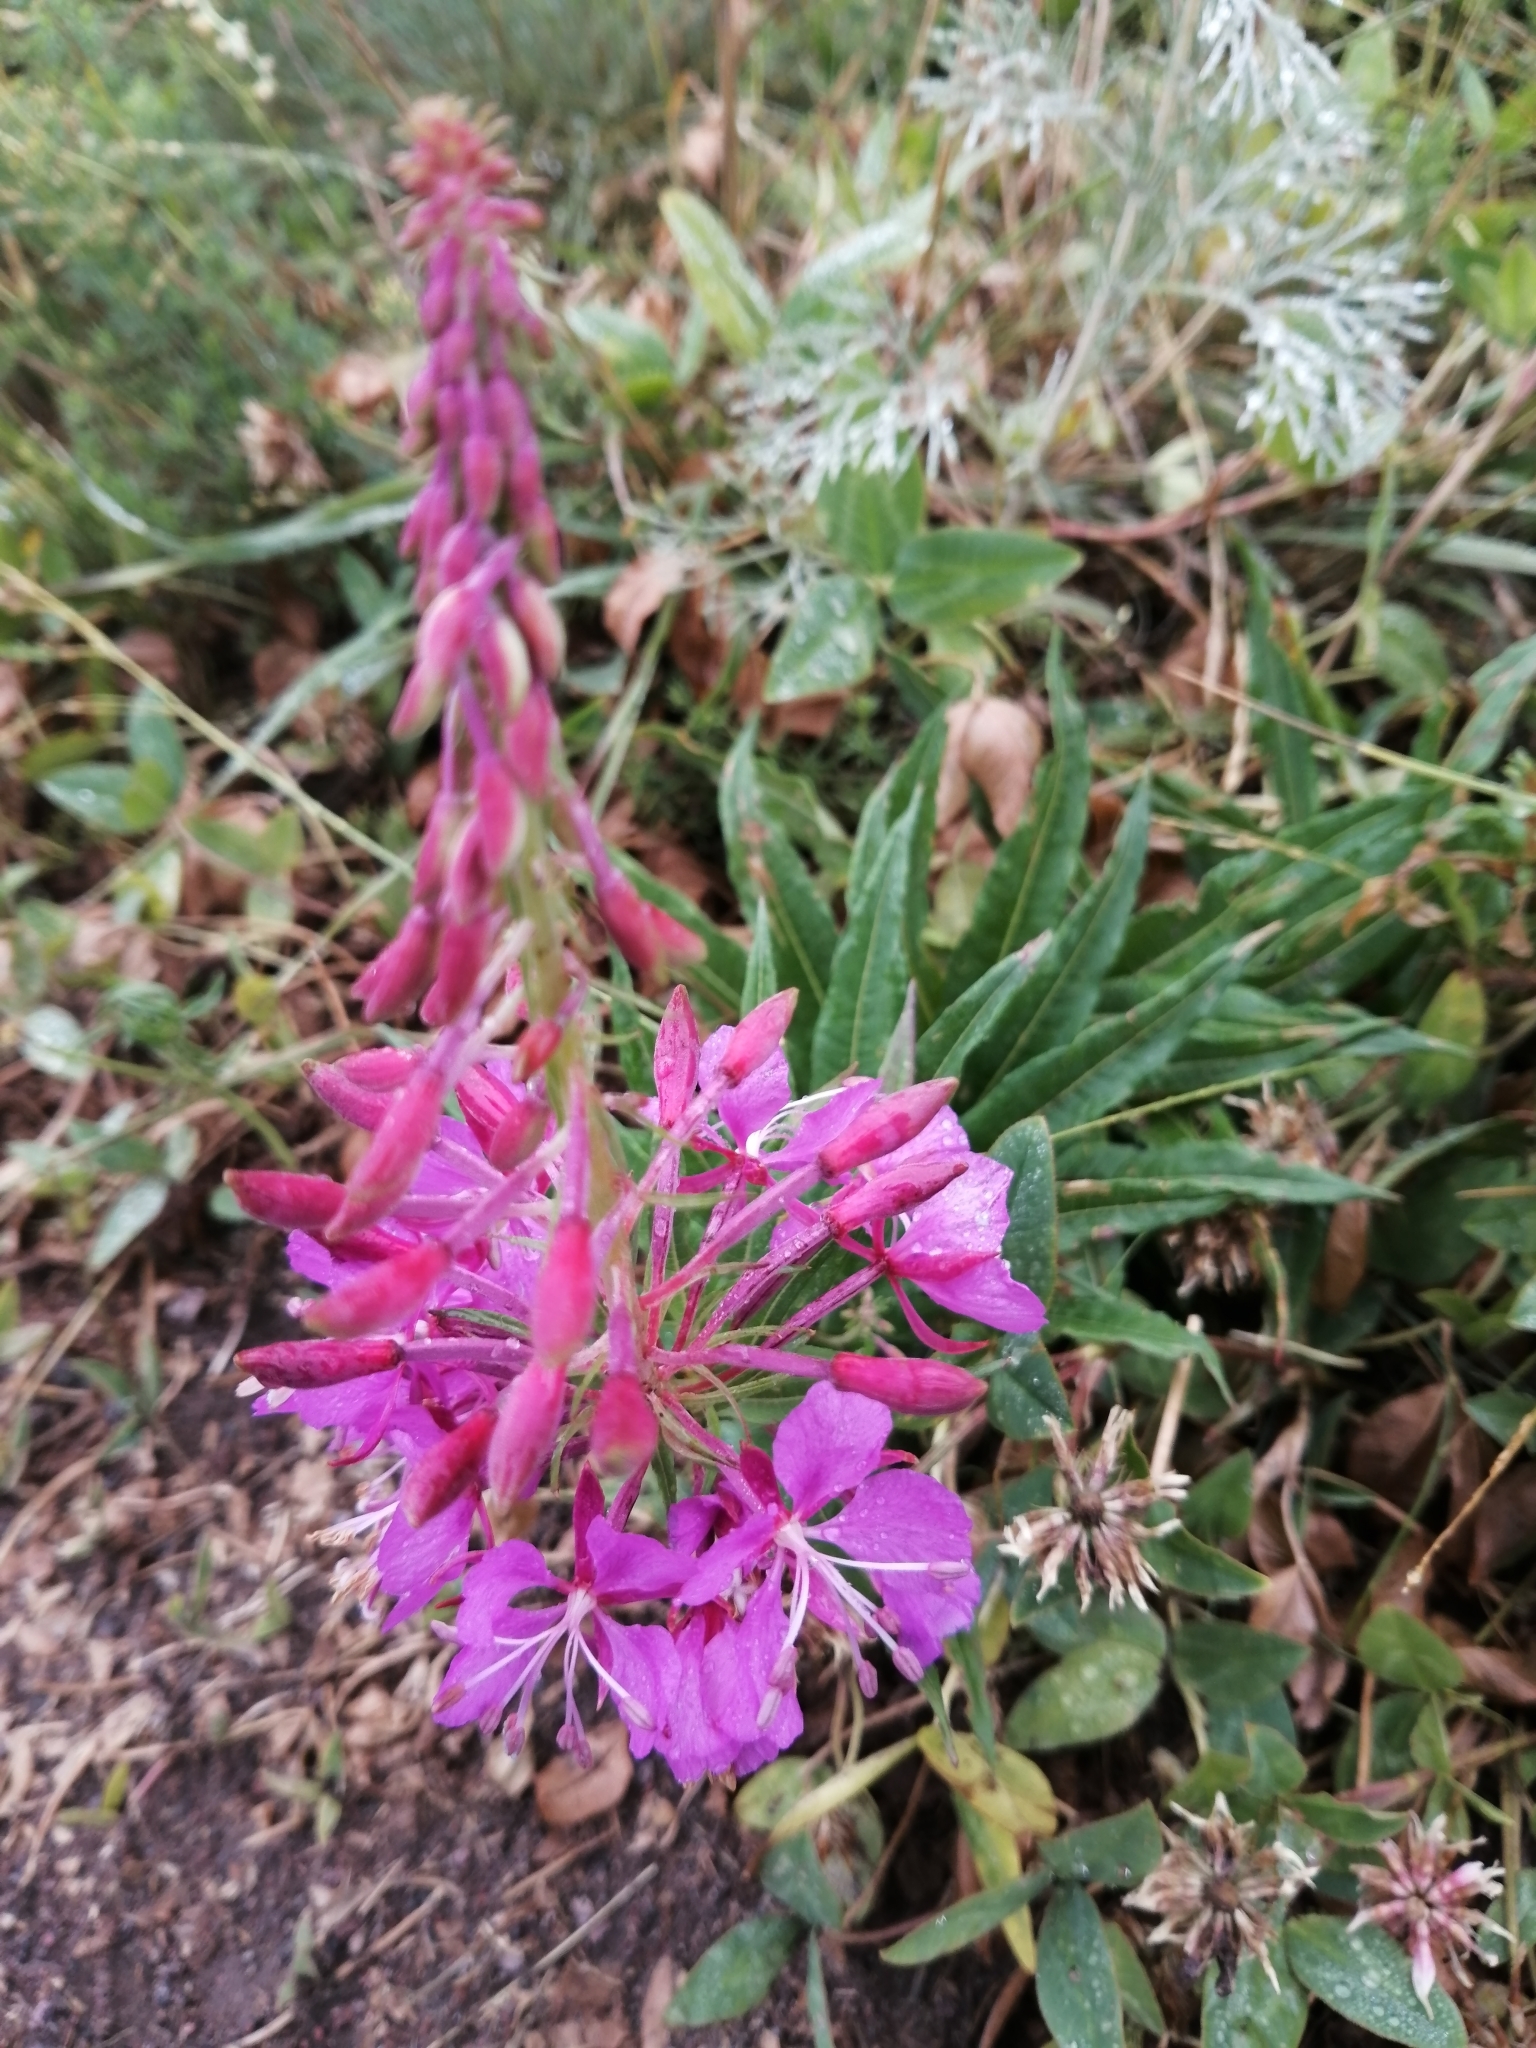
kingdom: Plantae
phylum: Tracheophyta
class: Magnoliopsida
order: Myrtales
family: Onagraceae
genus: Chamaenerion
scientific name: Chamaenerion angustifolium
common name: Fireweed
